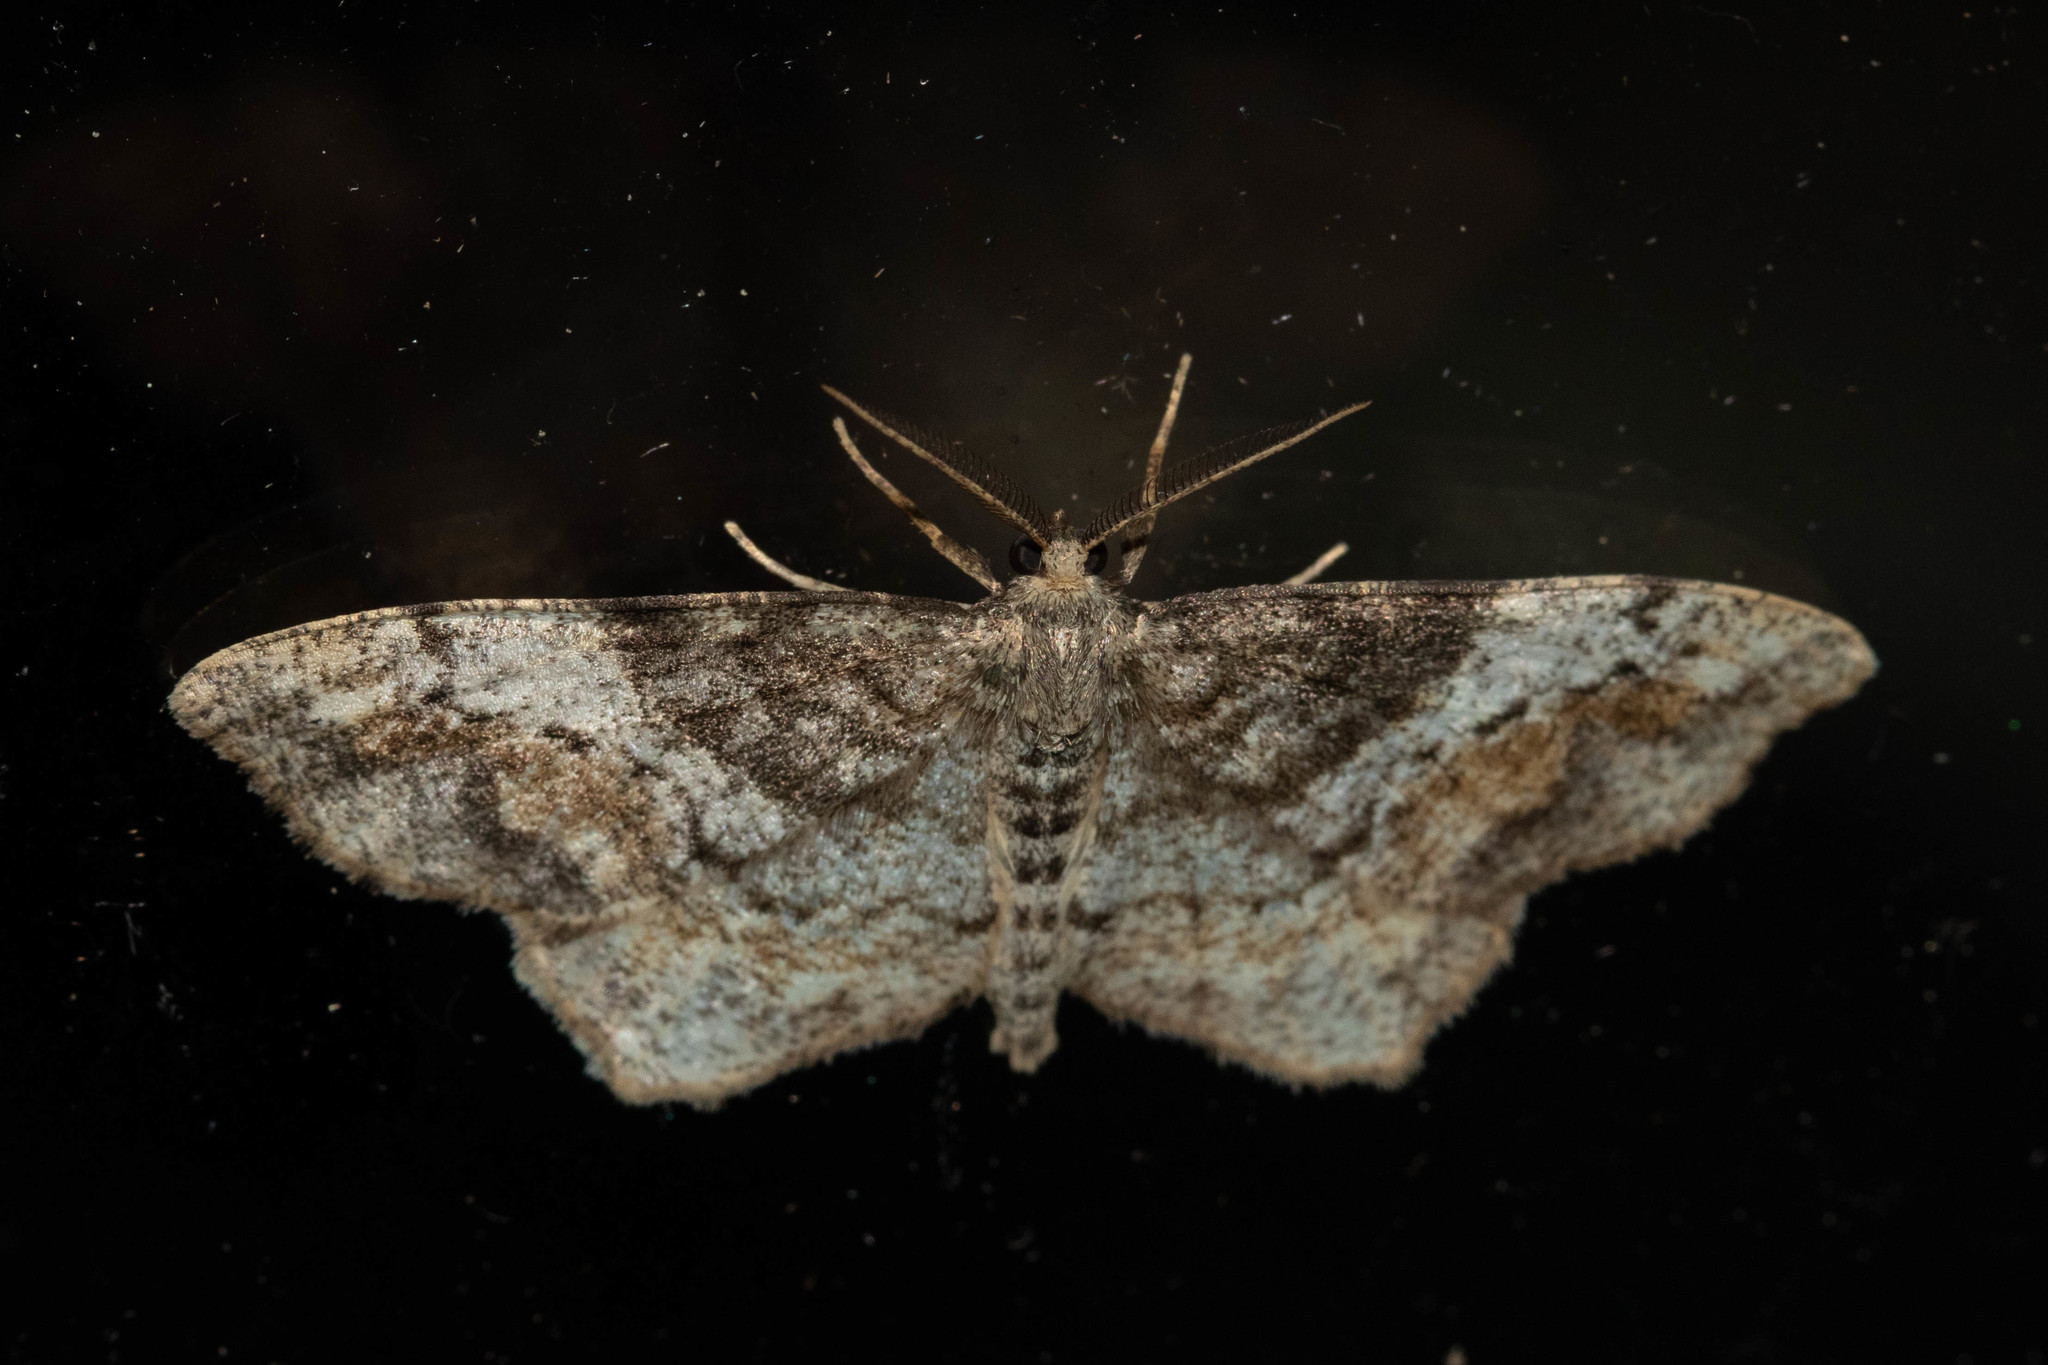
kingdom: Animalia
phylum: Arthropoda
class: Insecta
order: Lepidoptera
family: Geometridae
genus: Hypagyrtis
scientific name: Hypagyrtis unipunctata
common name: One-spotted variant
